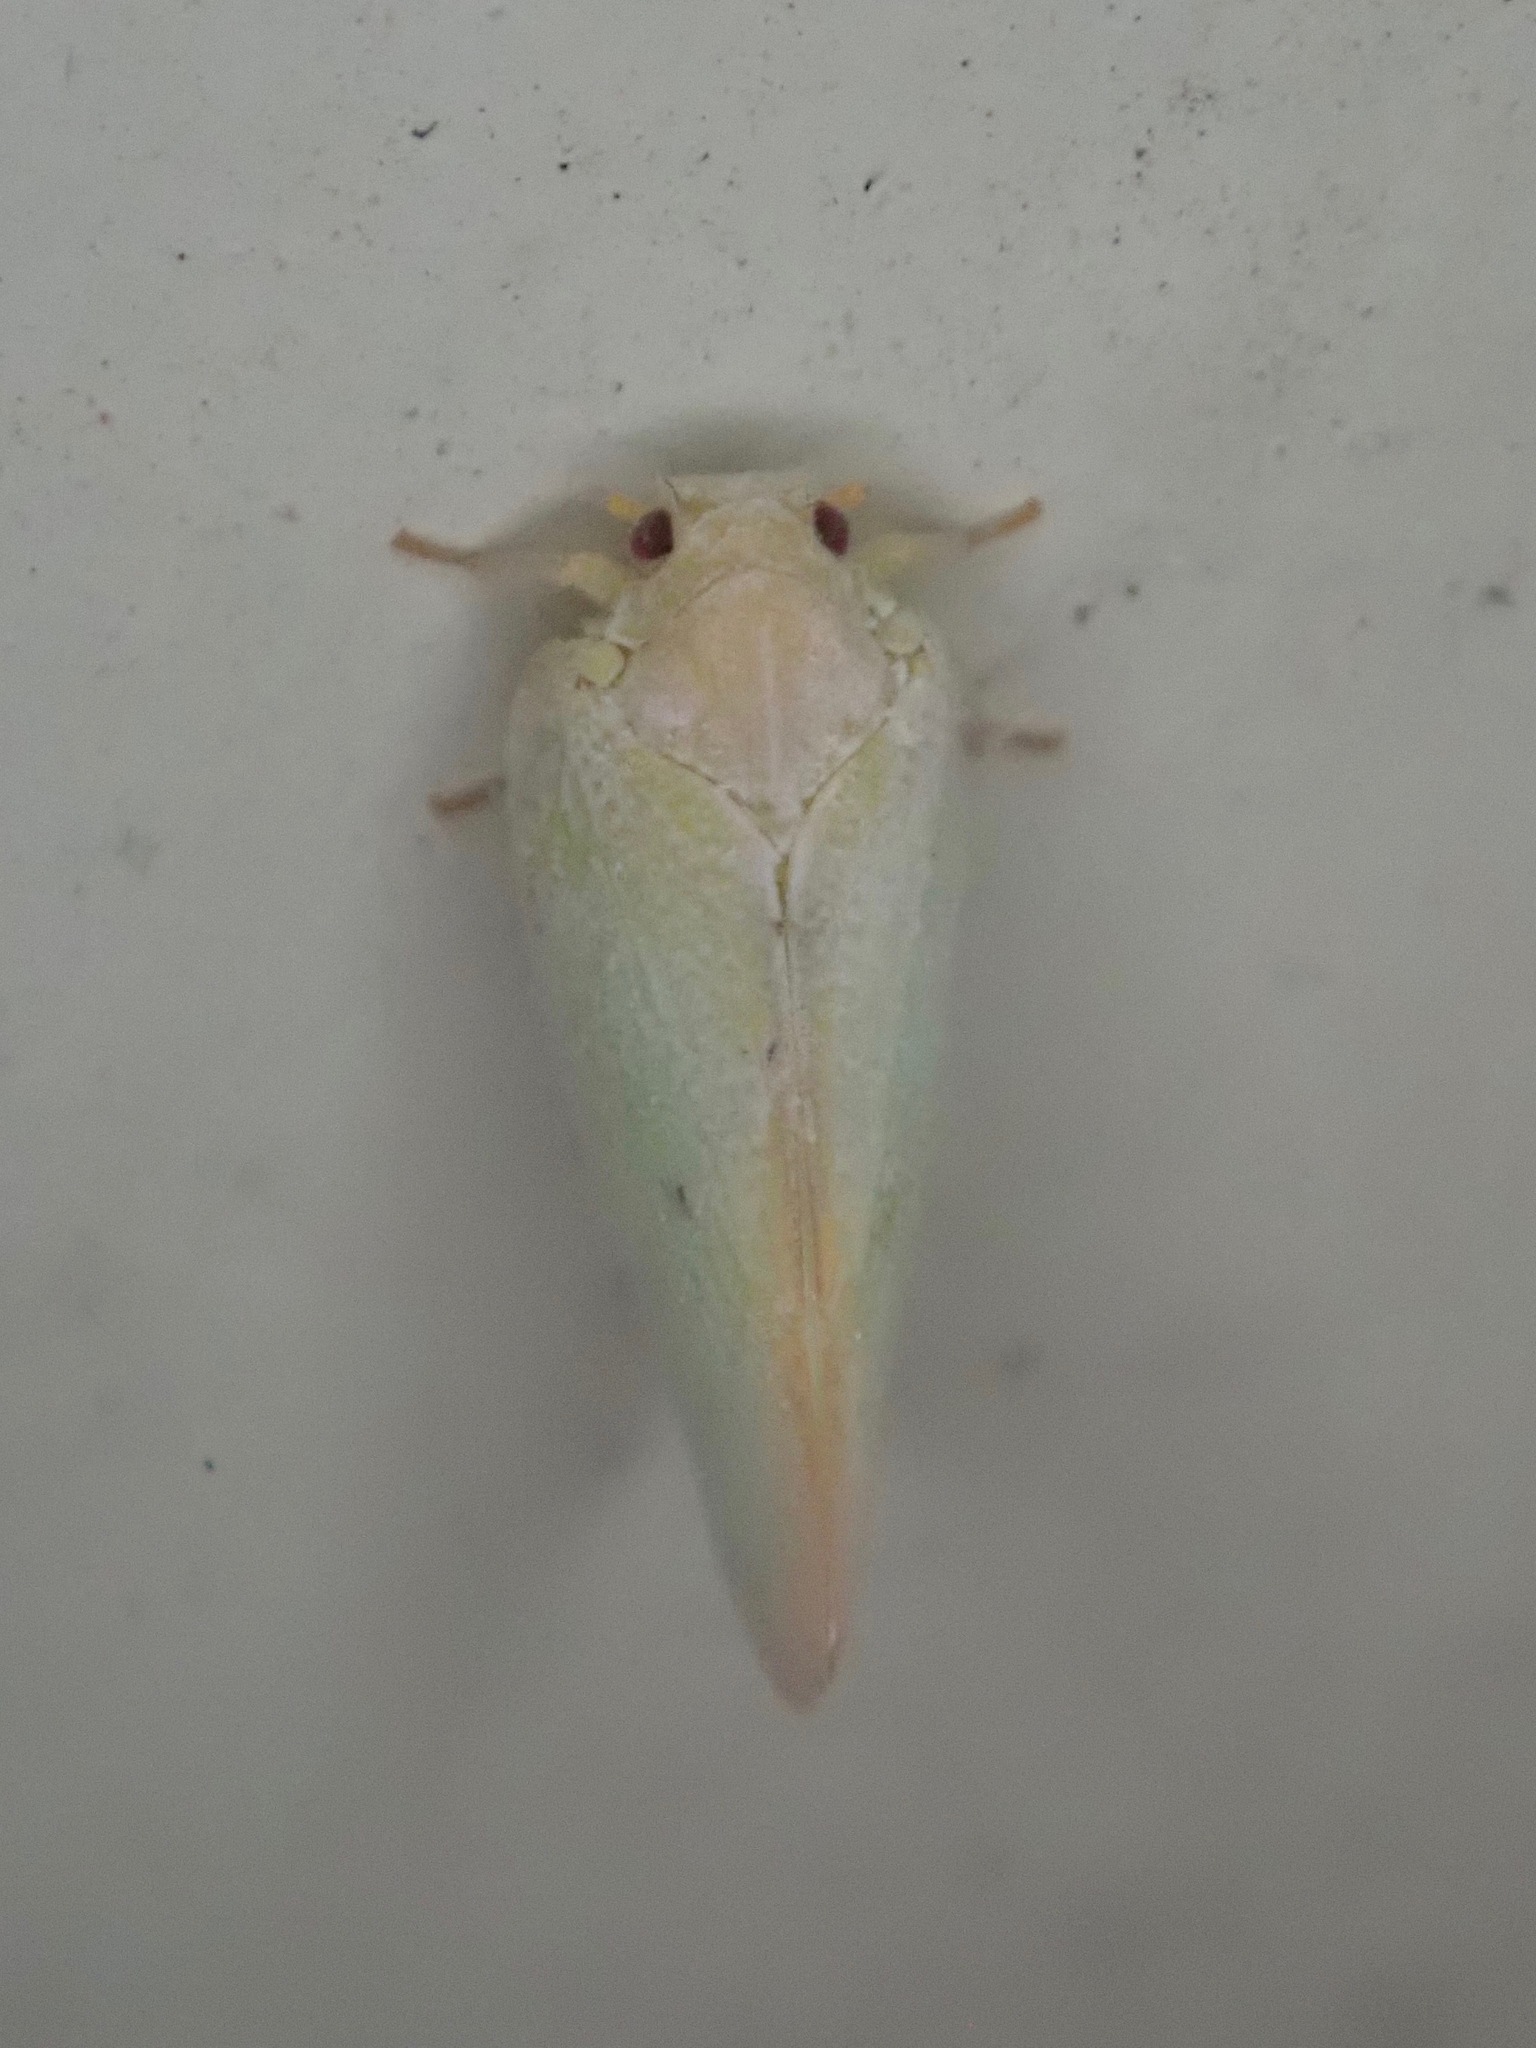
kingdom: Animalia
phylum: Arthropoda
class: Insecta
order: Hemiptera
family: Flatidae
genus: Ormenoides
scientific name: Ormenoides venusta
